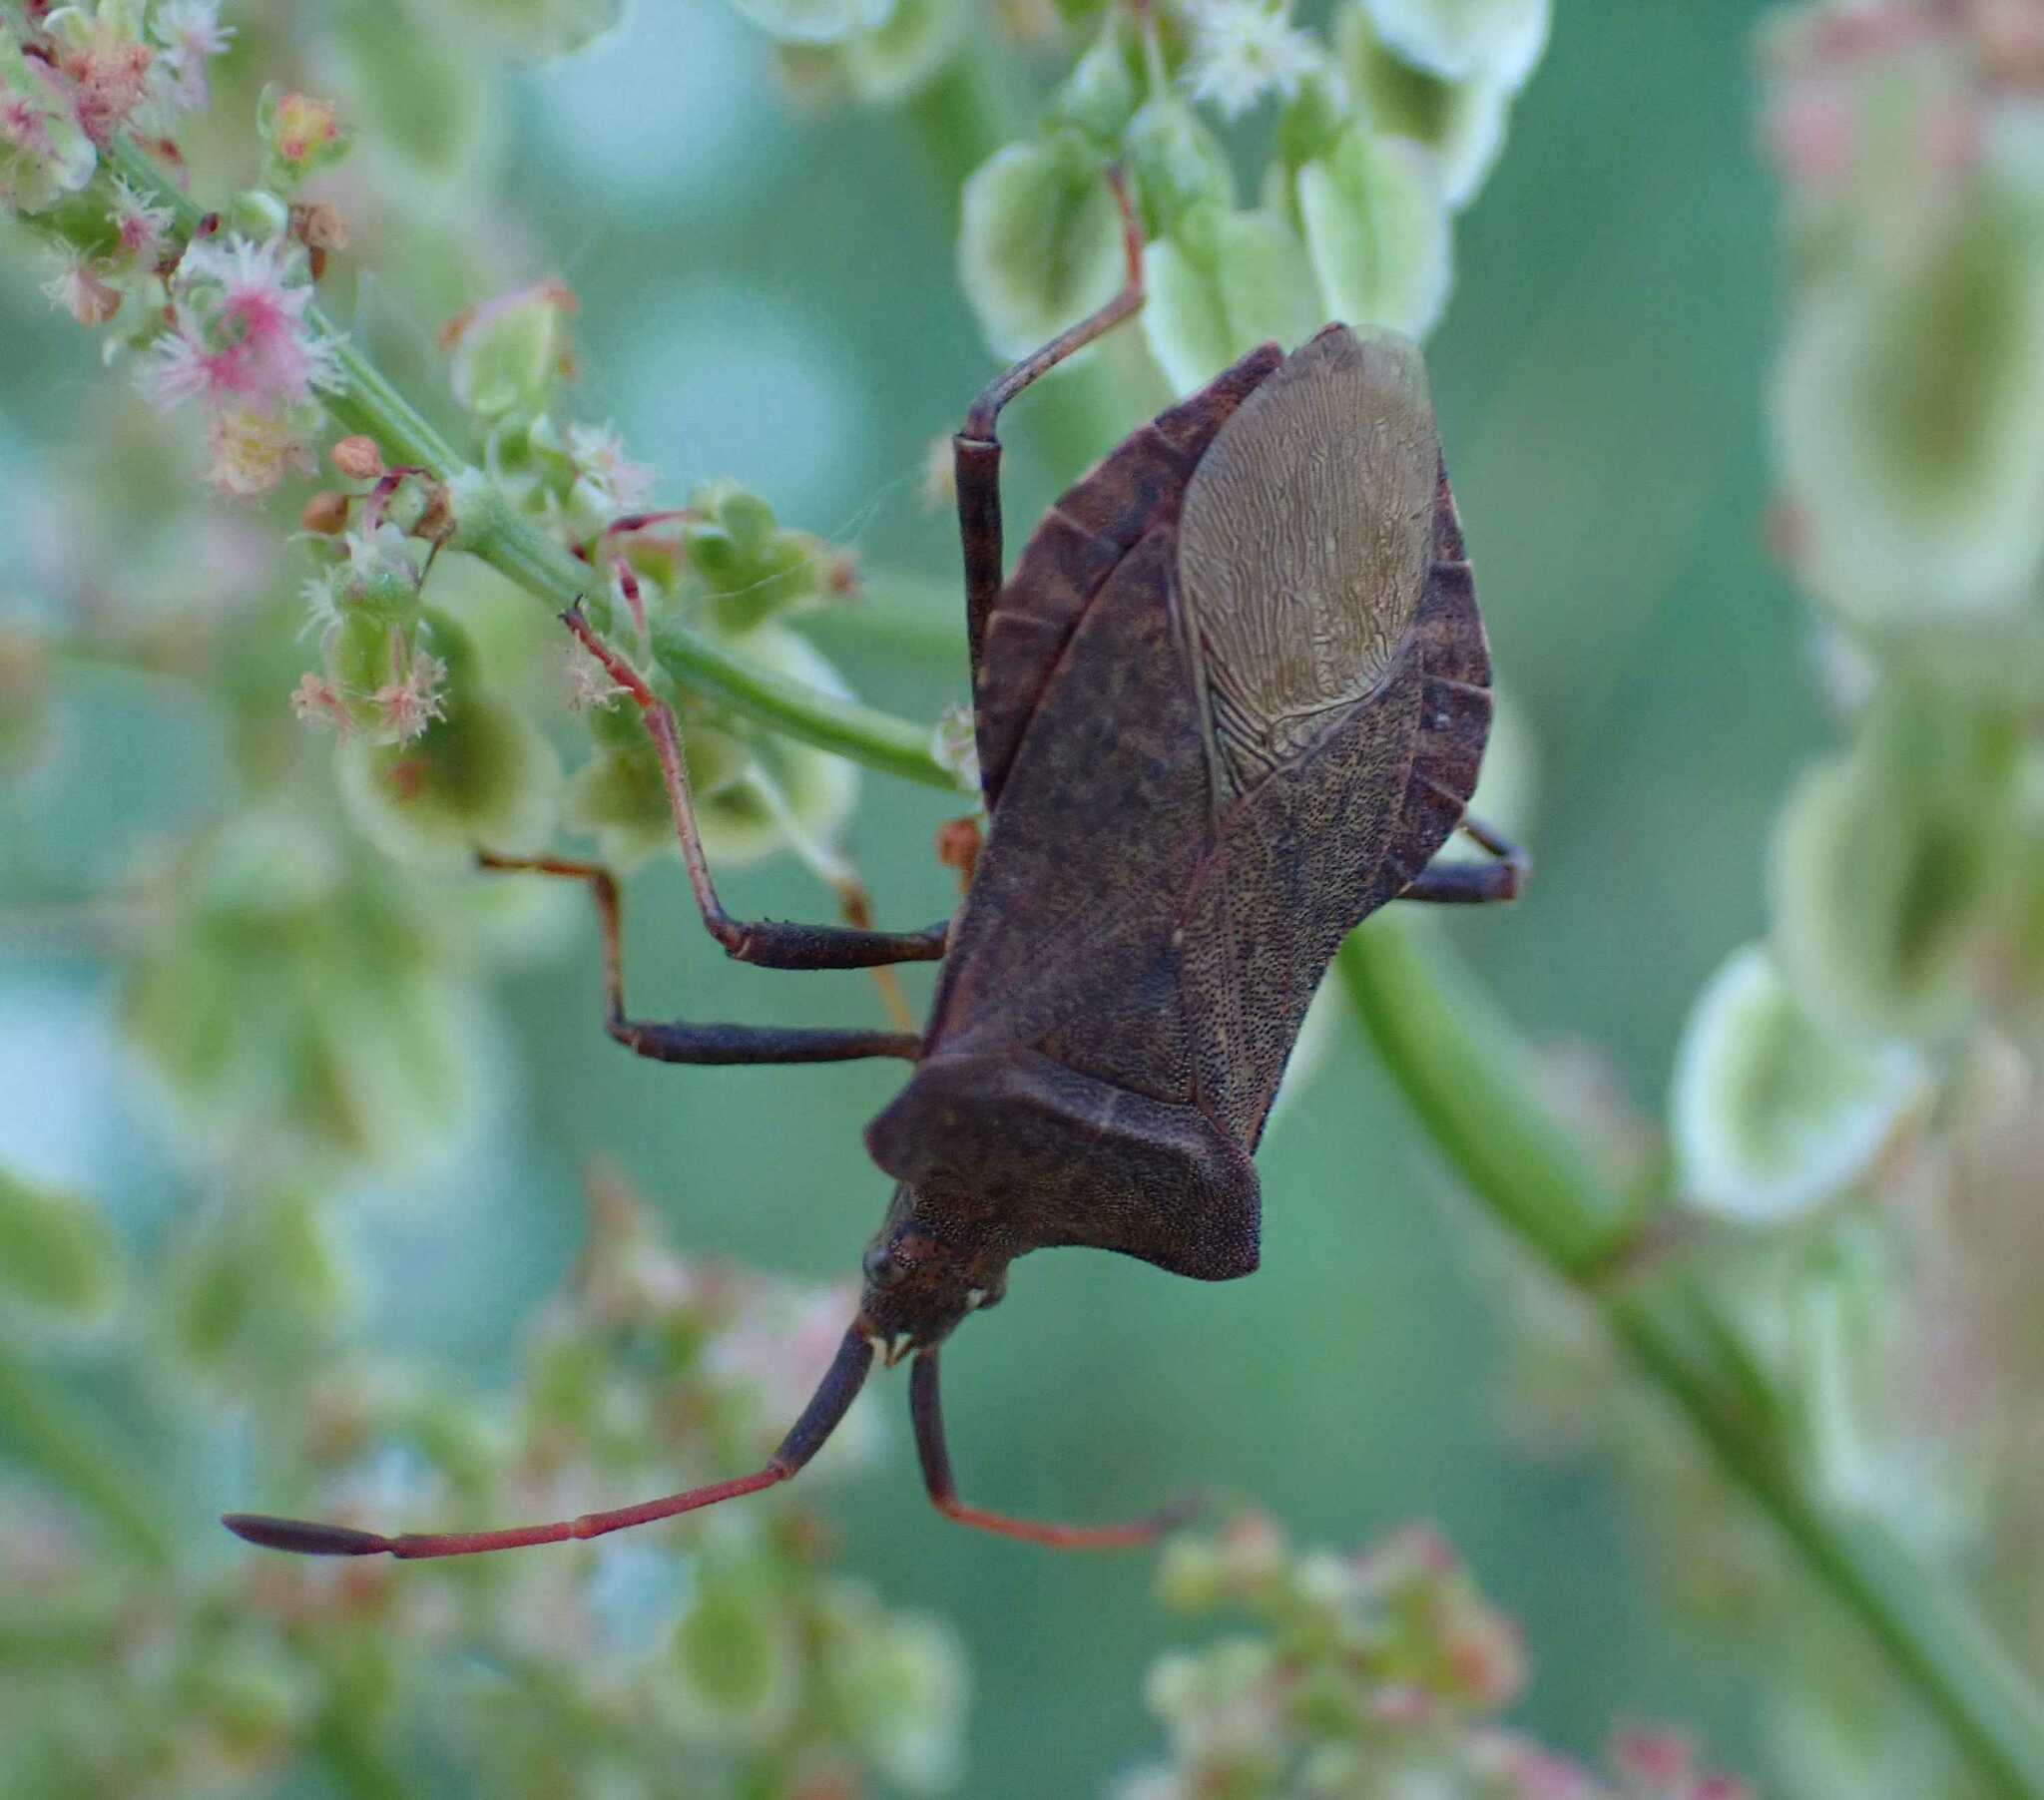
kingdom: Animalia
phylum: Arthropoda
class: Insecta
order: Hemiptera
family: Coreidae
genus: Coreus
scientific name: Coreus marginatus
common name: Dock bug
